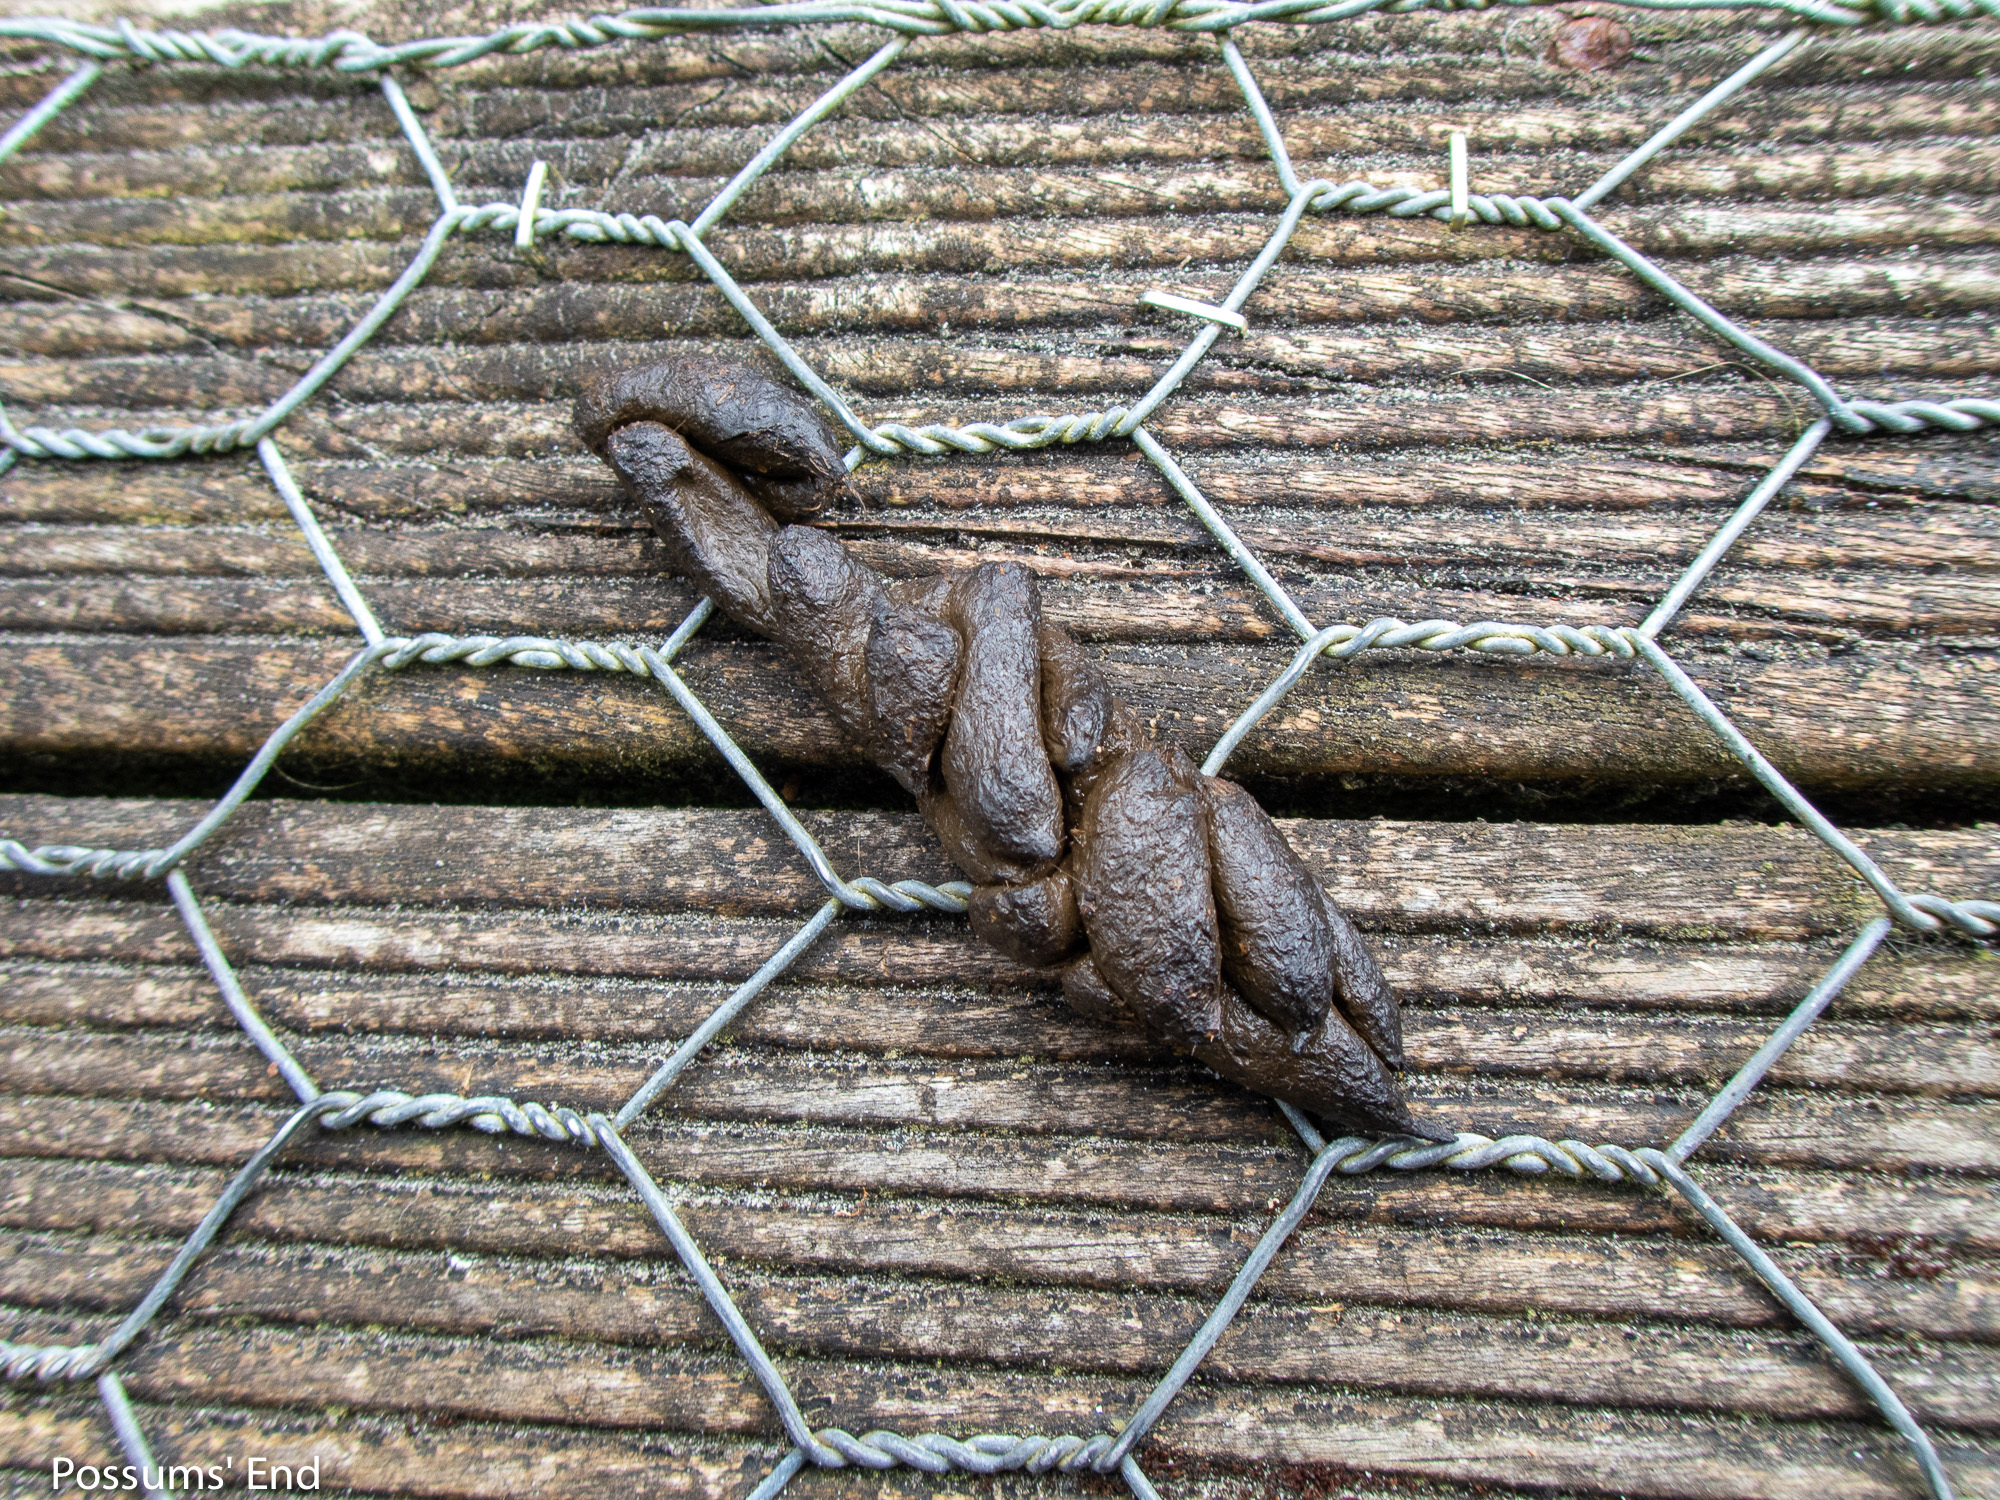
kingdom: Animalia
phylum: Chordata
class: Mammalia
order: Diprotodontia
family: Phalangeridae
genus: Trichosurus
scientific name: Trichosurus vulpecula
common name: Common brushtail
